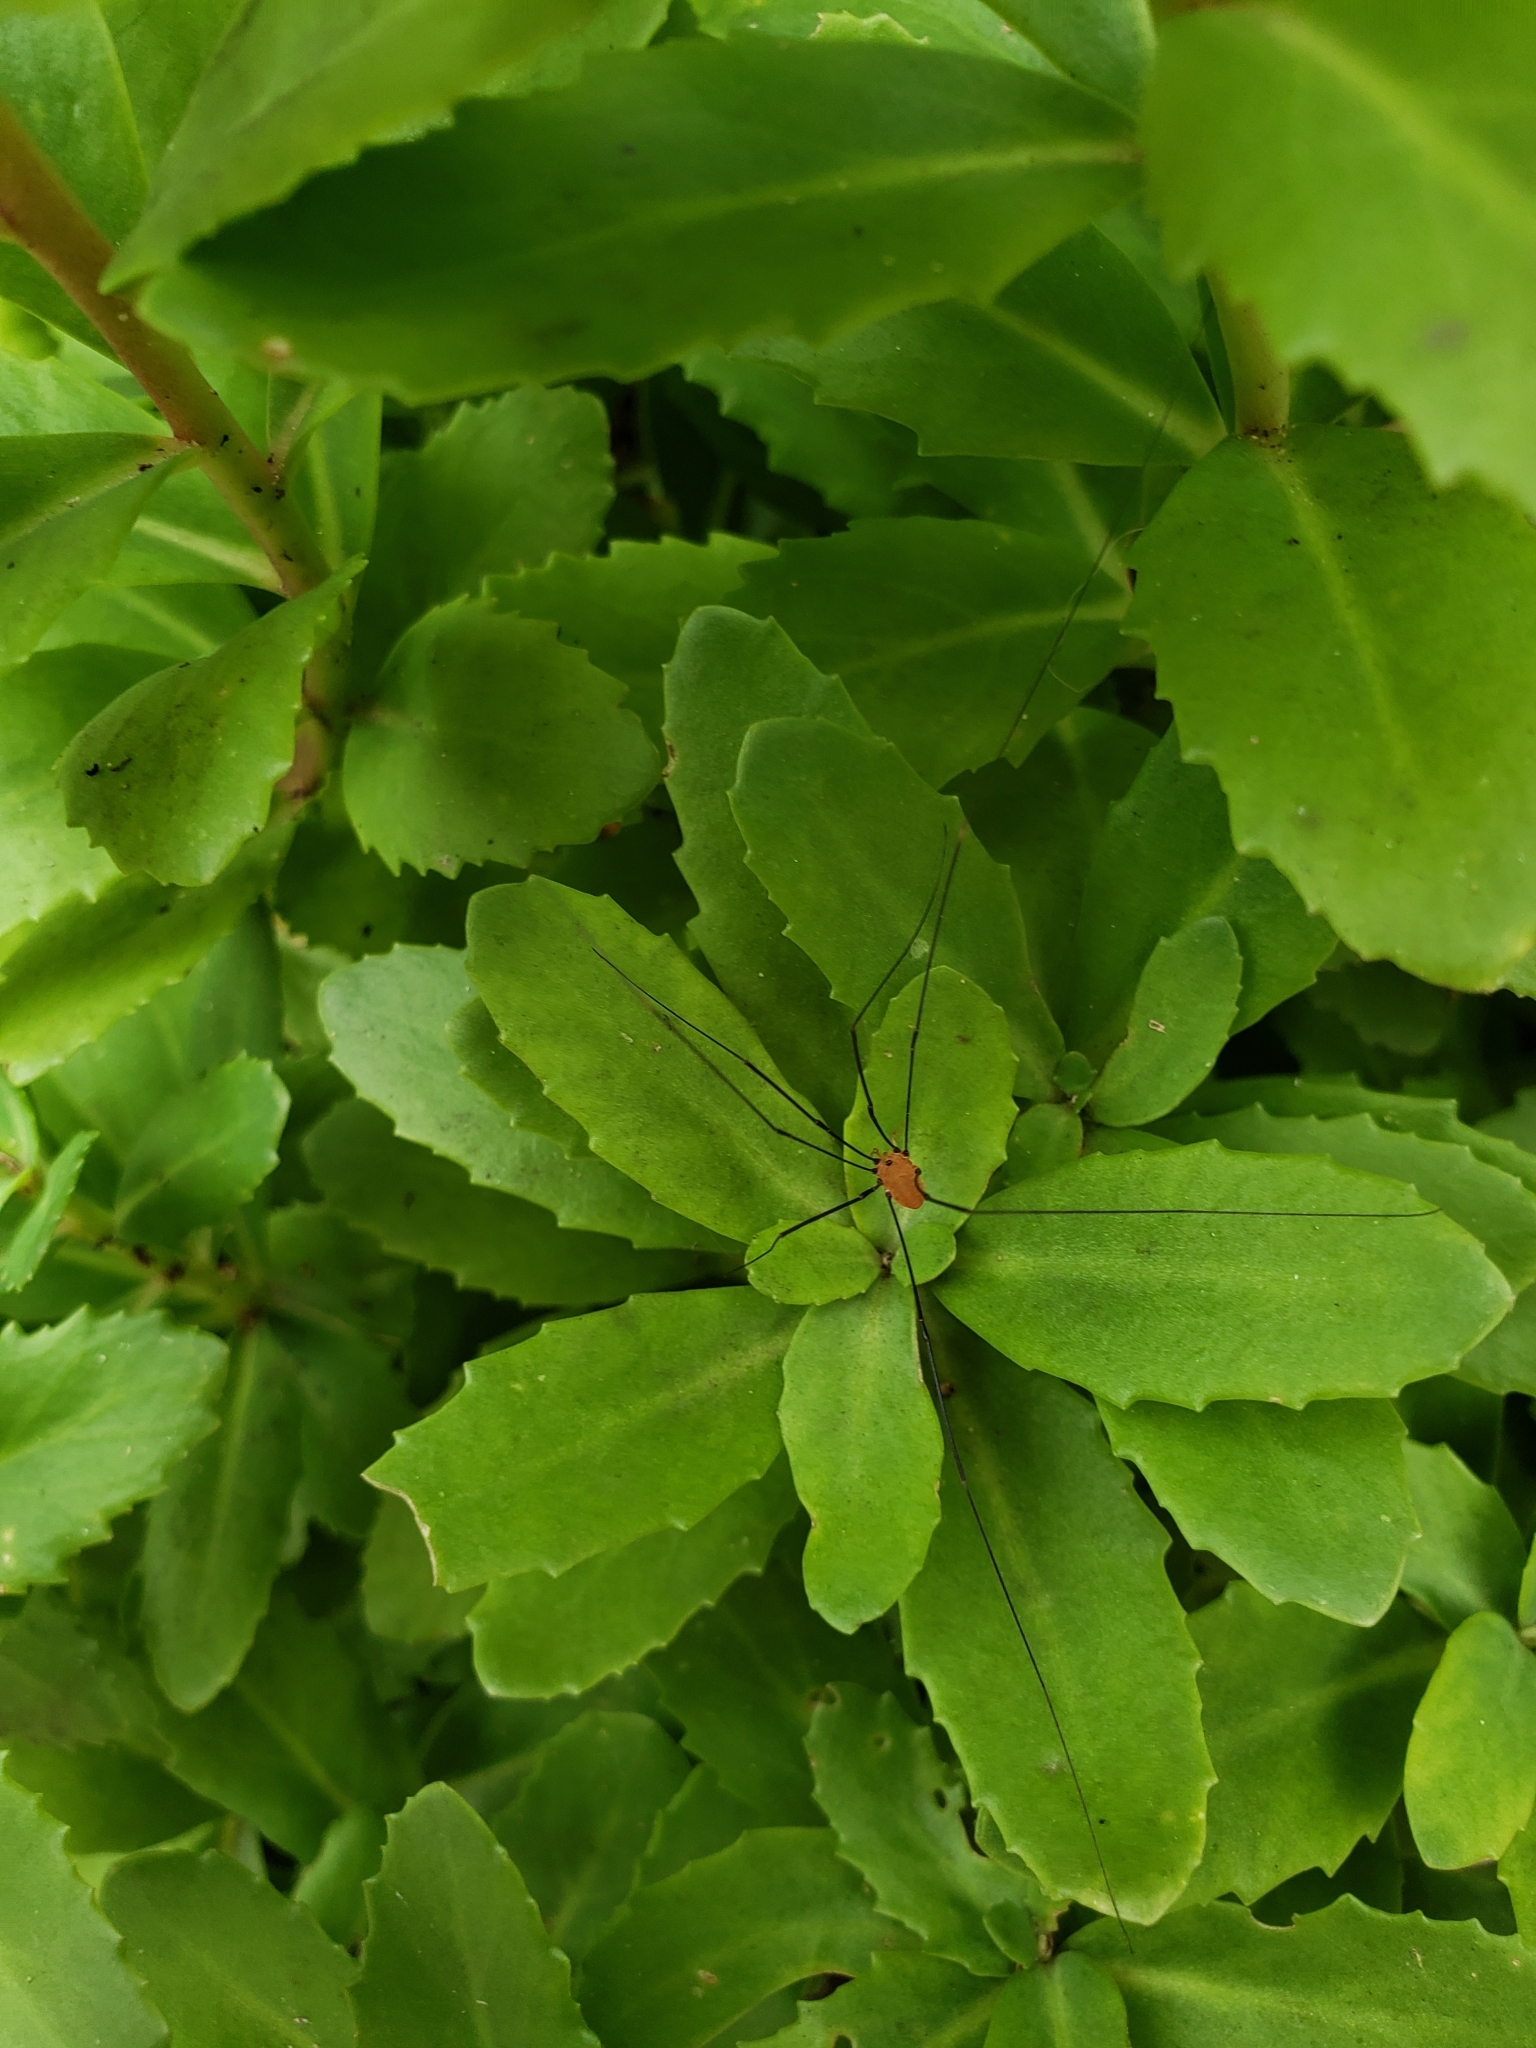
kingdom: Animalia
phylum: Arthropoda
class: Arachnida
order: Opiliones
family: Sclerosomatidae
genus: Leiobunum
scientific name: Leiobunum aldrichi
